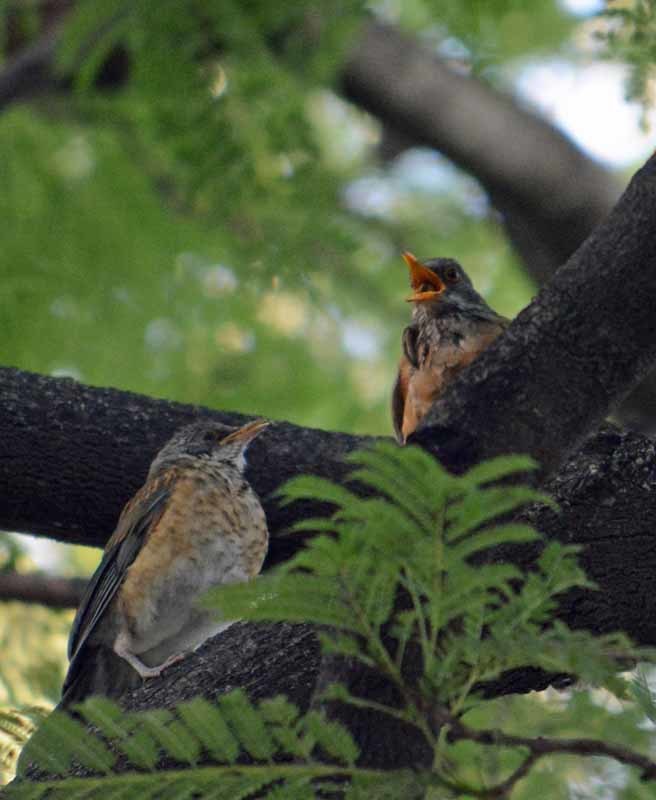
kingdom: Animalia
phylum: Chordata
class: Aves
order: Passeriformes
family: Turdidae
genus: Turdus
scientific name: Turdus rufopalliatus
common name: Rufous-backed robin
